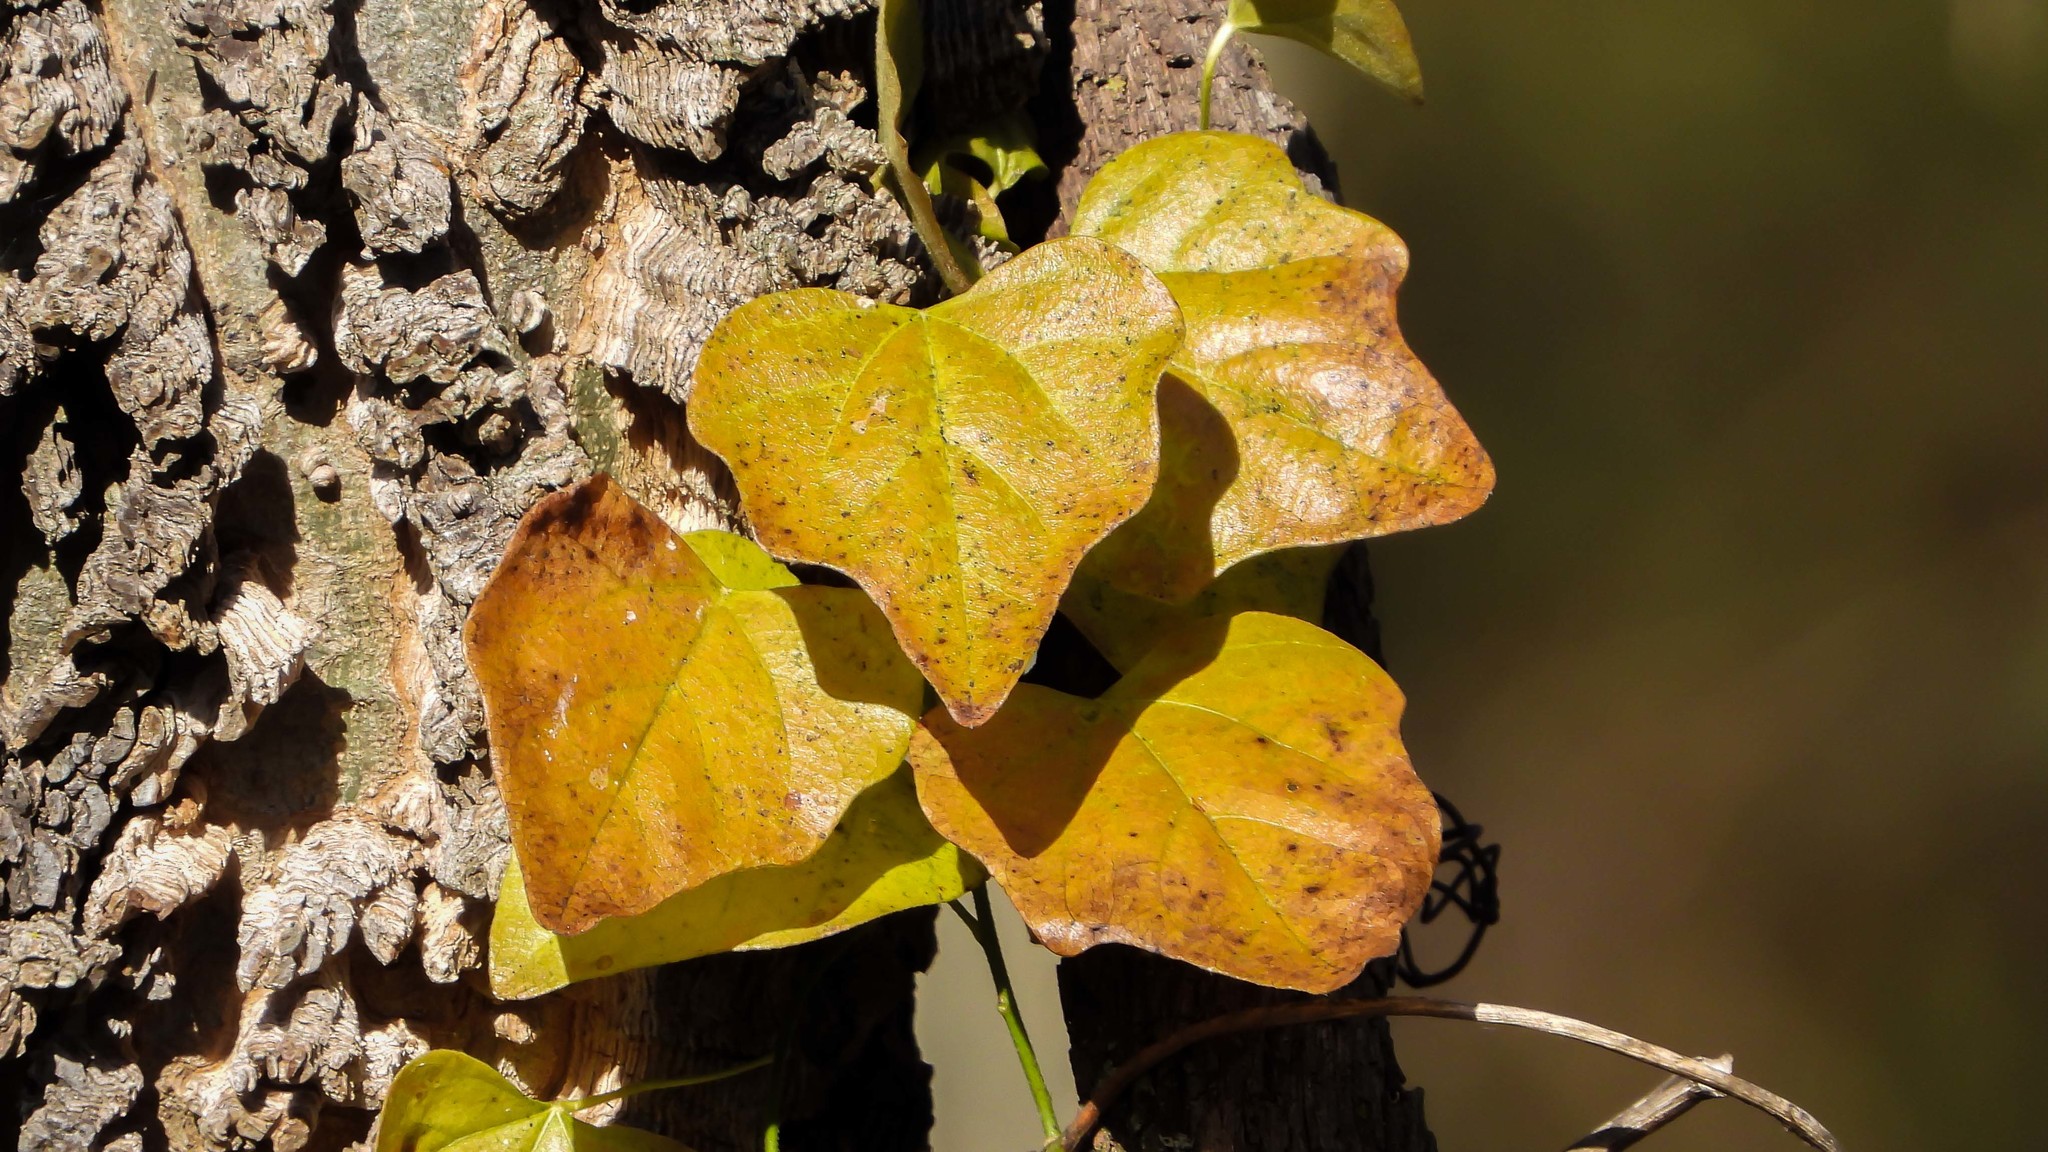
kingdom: Plantae
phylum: Tracheophyta
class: Magnoliopsida
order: Ranunculales
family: Menispermaceae
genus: Cocculus
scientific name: Cocculus carolinus
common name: Carolina moonseed
